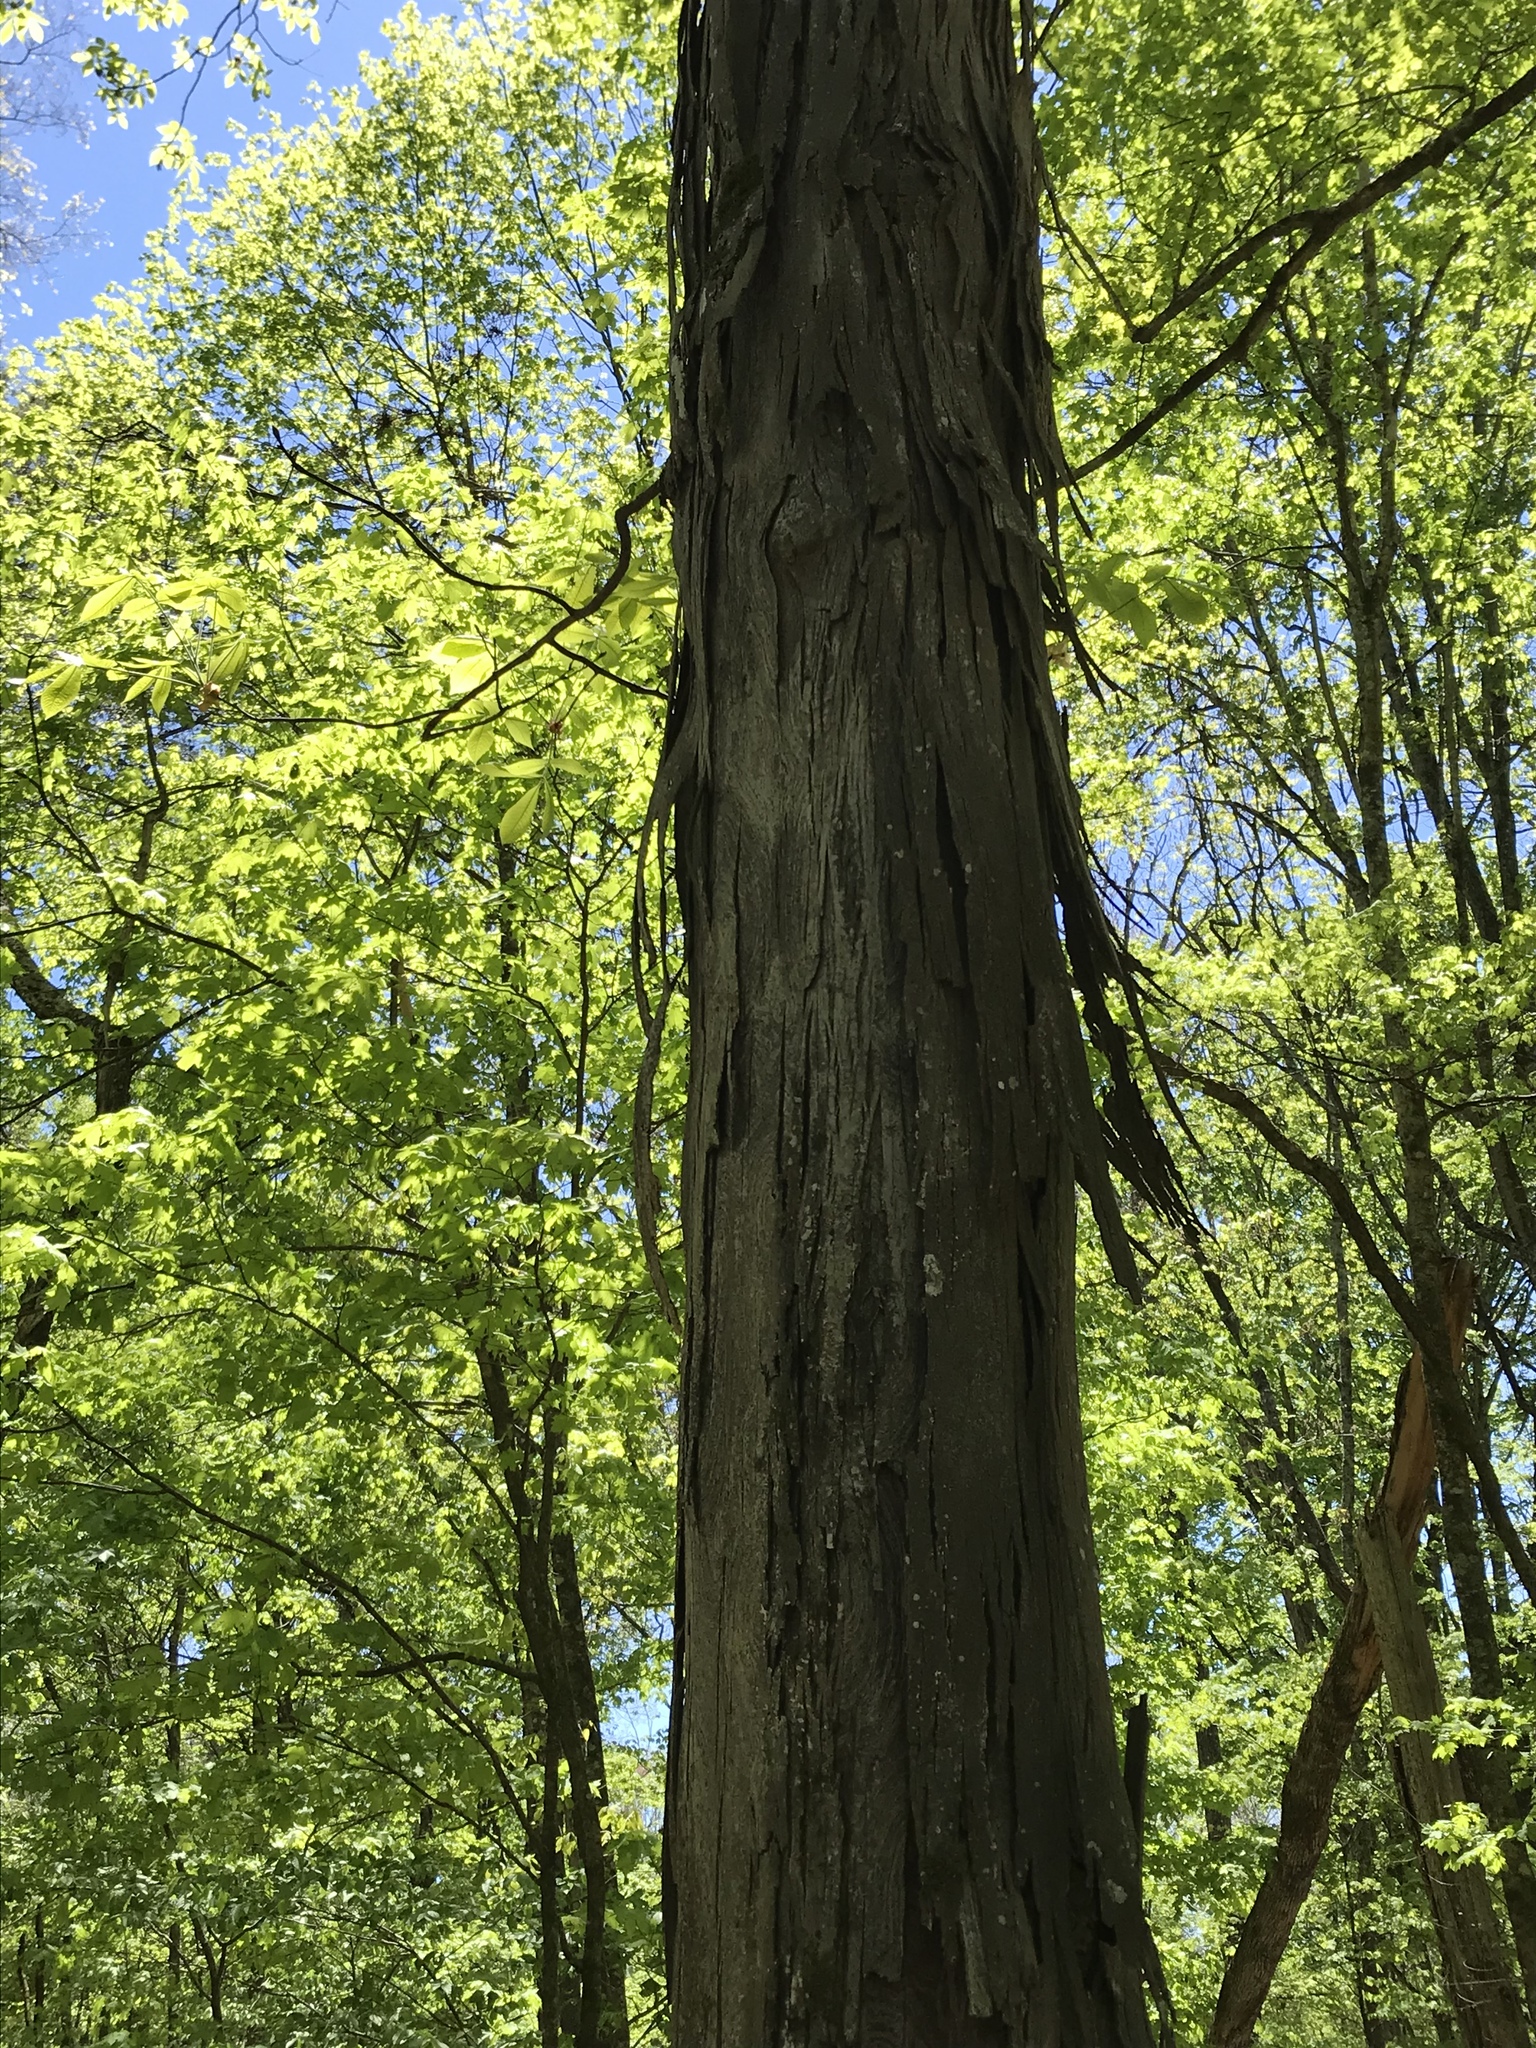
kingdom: Plantae
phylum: Tracheophyta
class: Magnoliopsida
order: Fagales
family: Juglandaceae
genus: Carya
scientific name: Carya ovata
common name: Shagbark hickory
